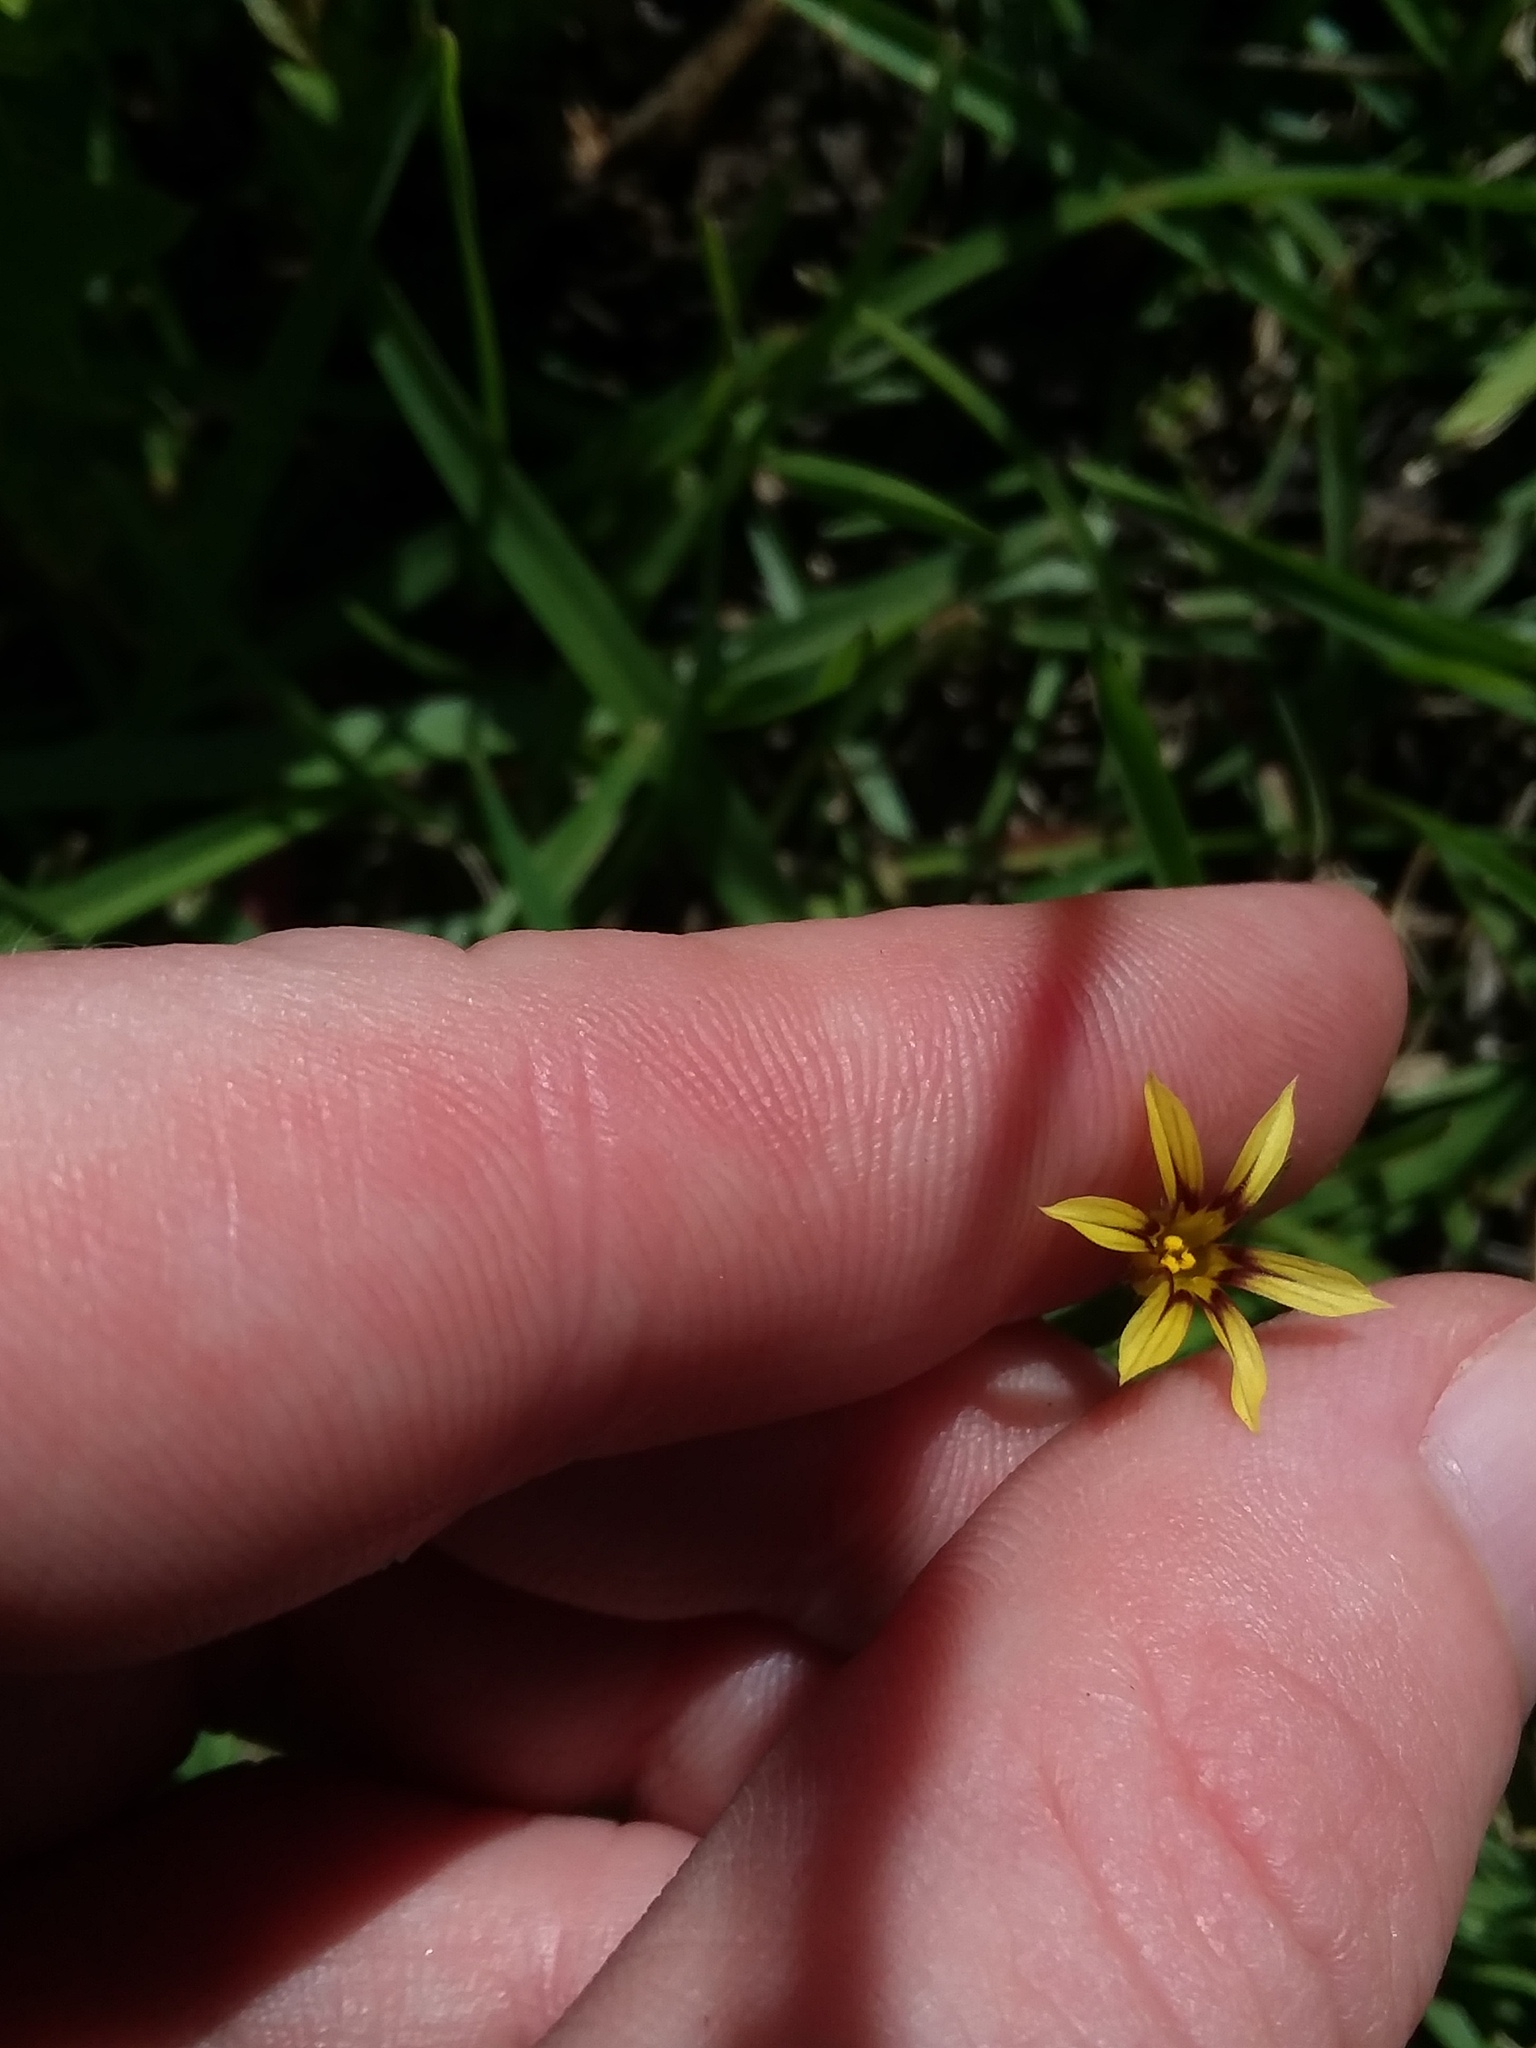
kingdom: Plantae
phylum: Tracheophyta
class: Liliopsida
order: Asparagales
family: Iridaceae
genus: Sisyrinchium
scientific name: Sisyrinchium micranthum
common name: Bermuda pigroot
